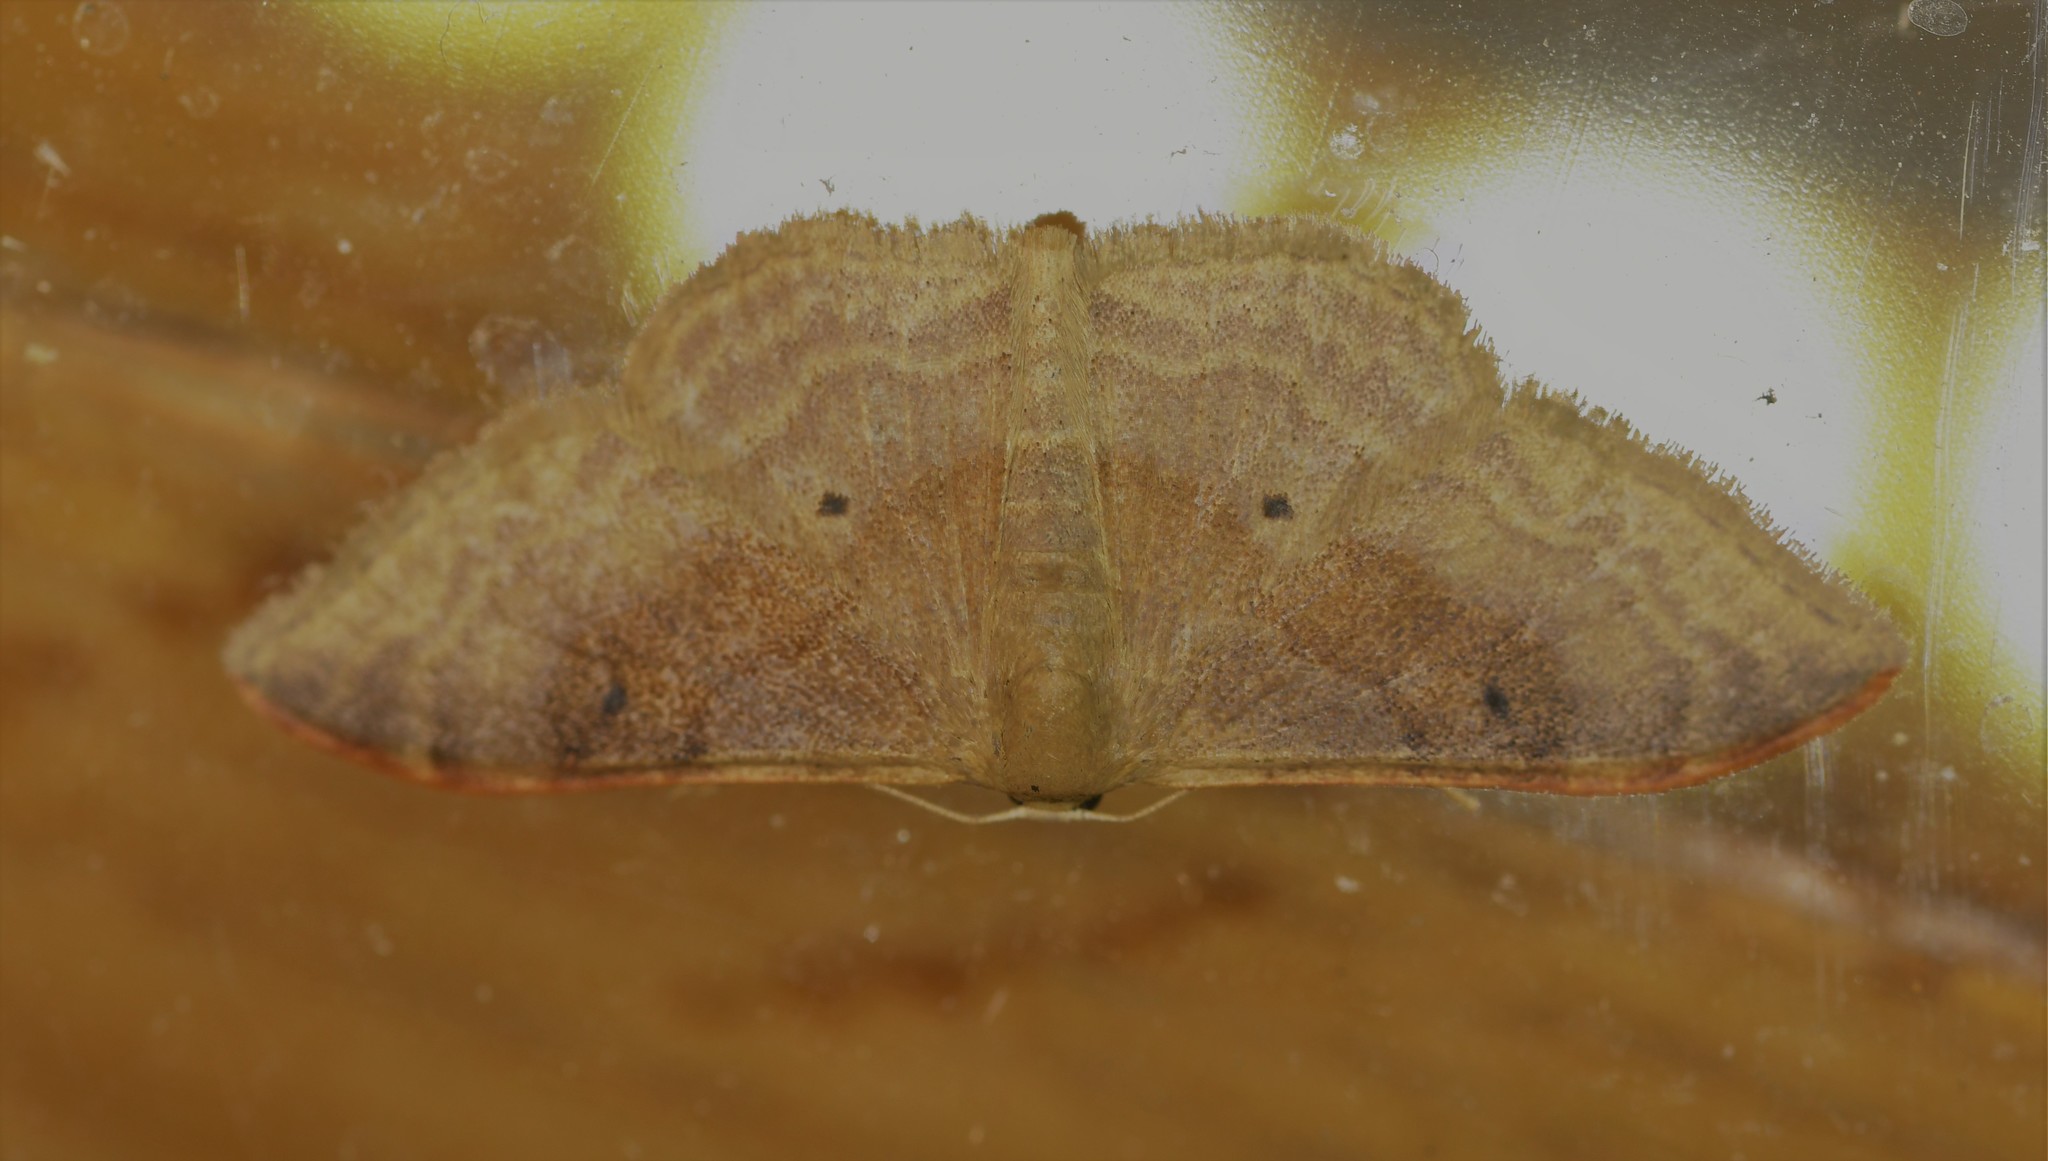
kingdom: Animalia
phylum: Arthropoda
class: Insecta
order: Lepidoptera
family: Geometridae
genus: Idaea
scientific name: Idaea degeneraria
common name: Portland ribbon wave
